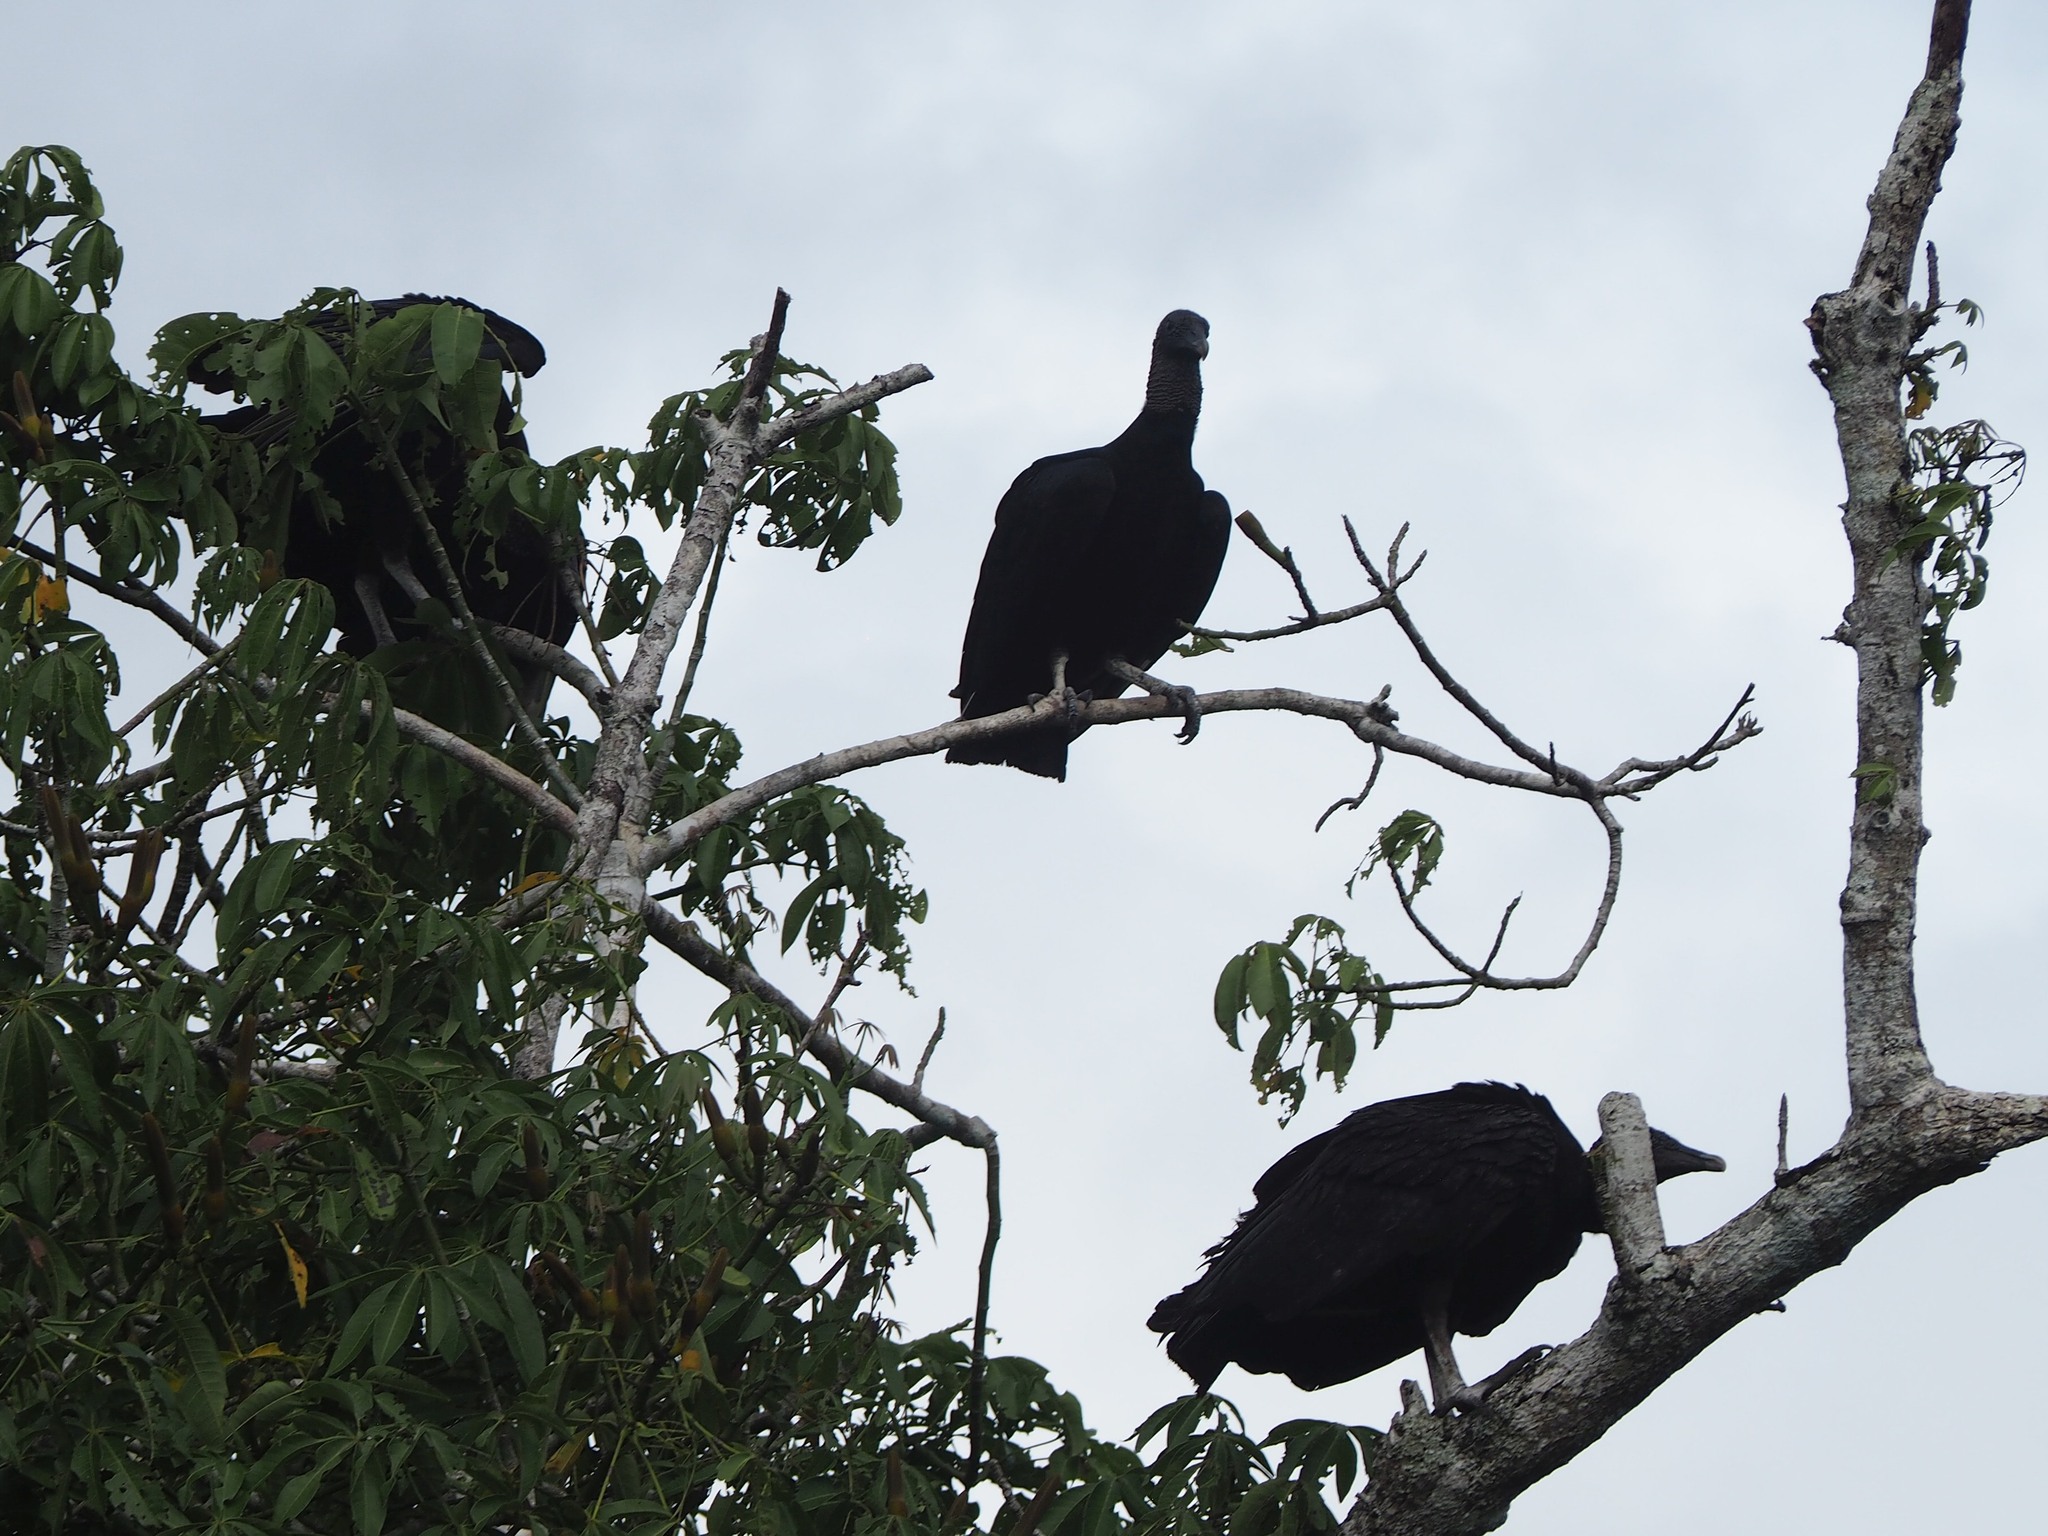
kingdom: Animalia
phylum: Chordata
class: Aves
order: Accipitriformes
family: Cathartidae
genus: Coragyps
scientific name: Coragyps atratus
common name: Black vulture
